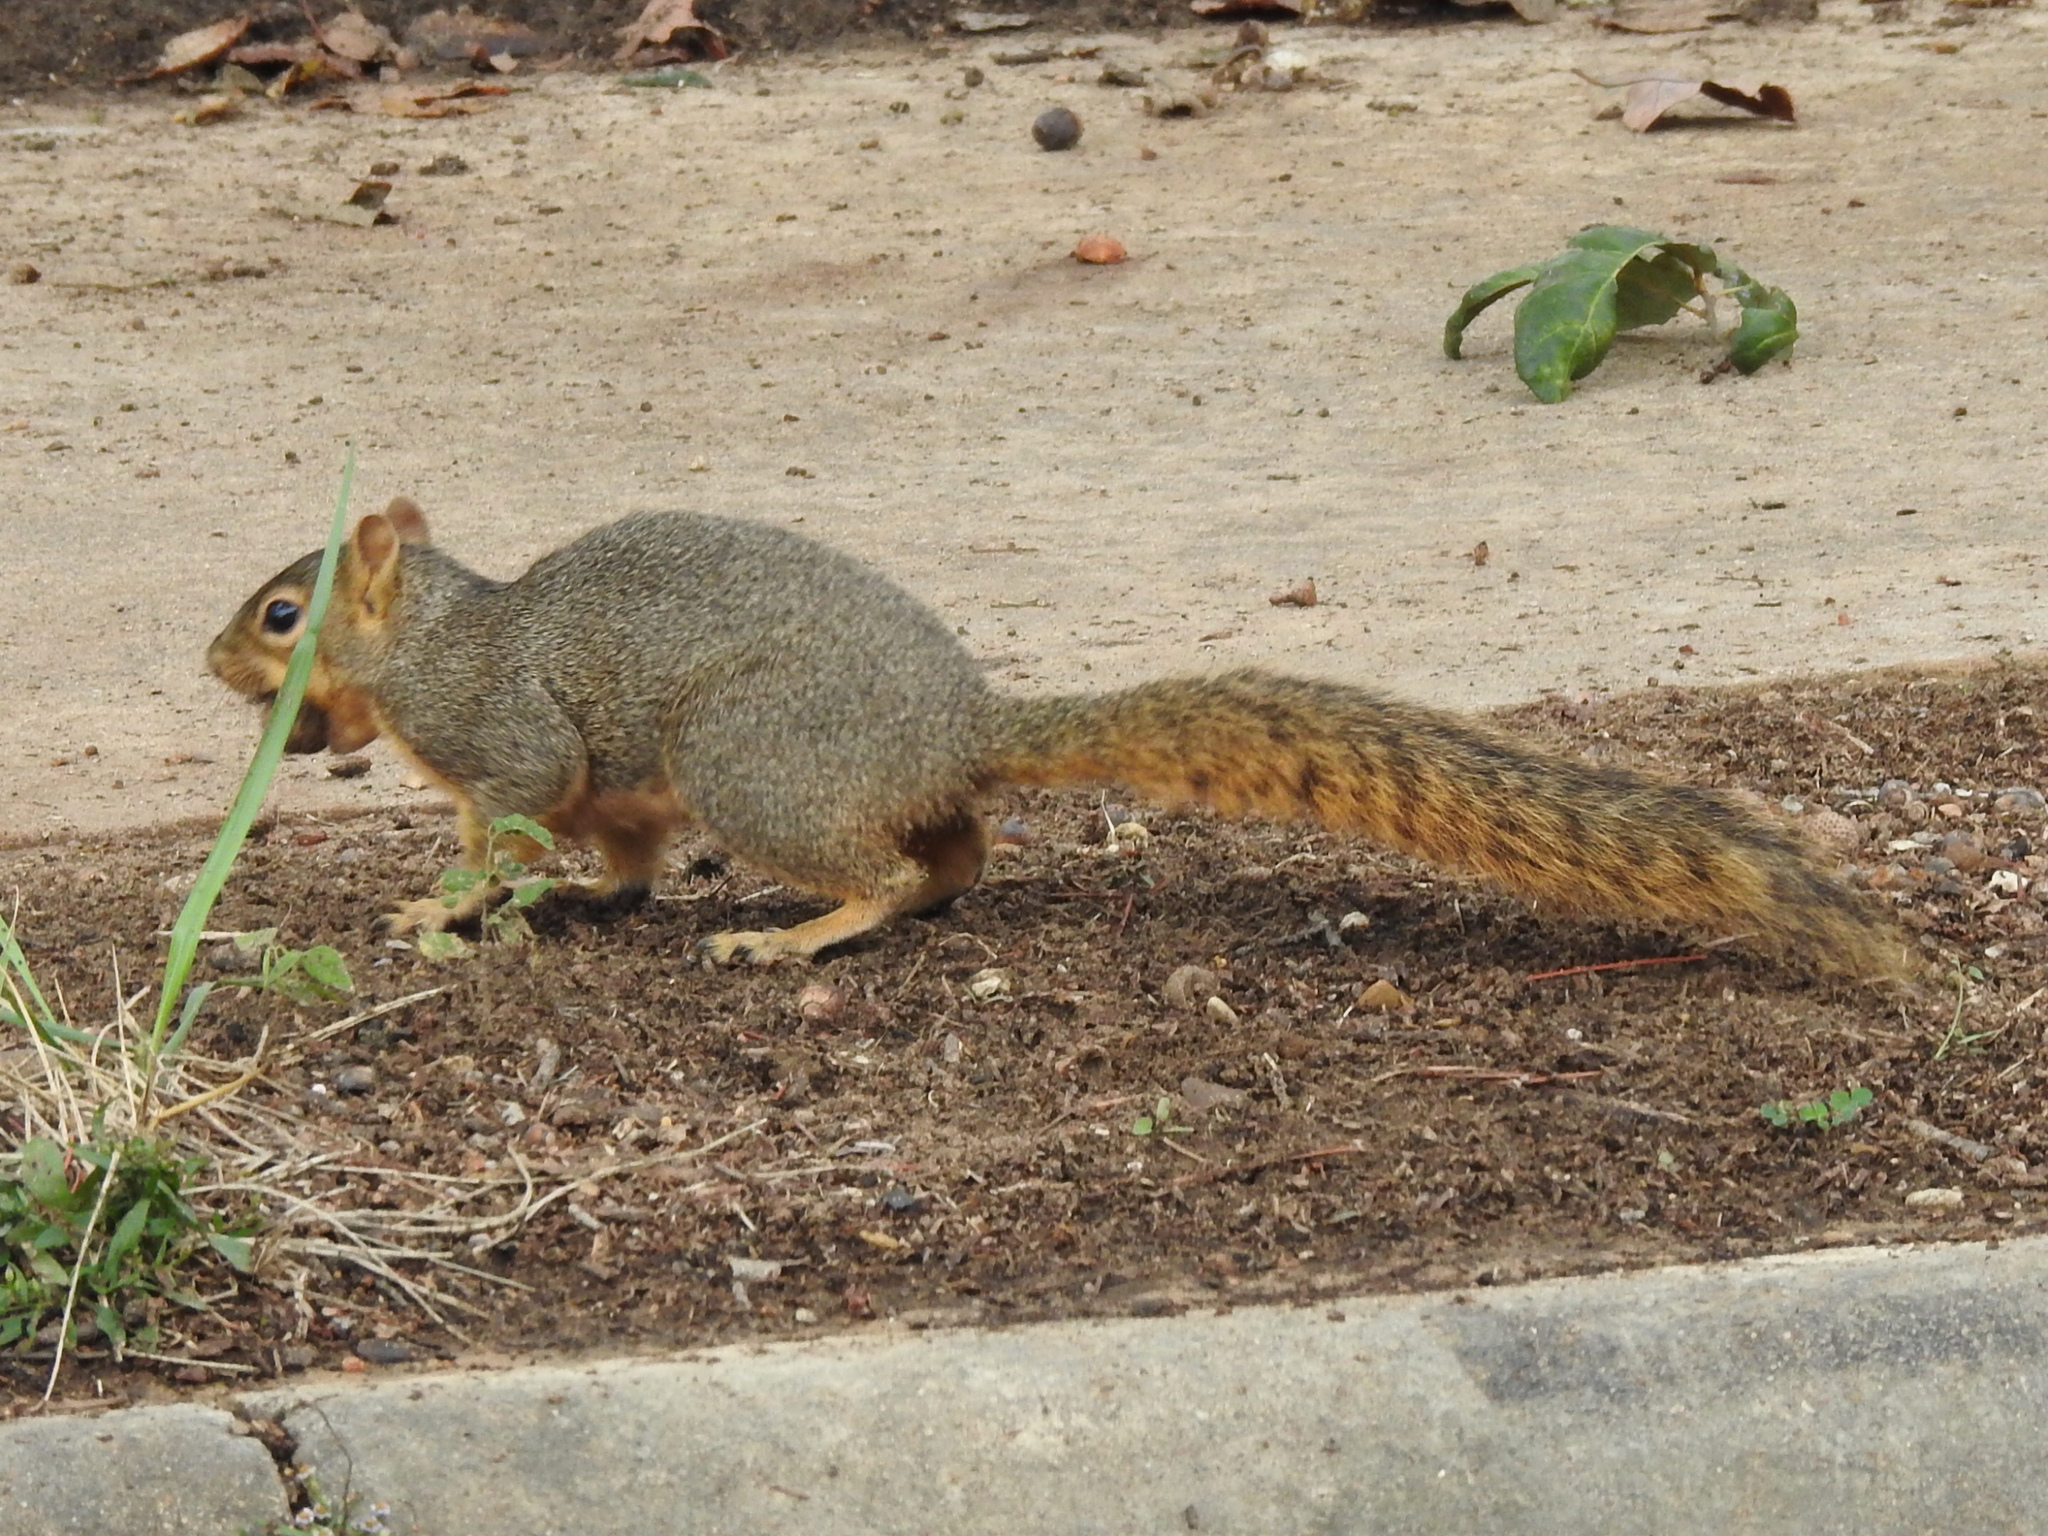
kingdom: Animalia
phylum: Chordata
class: Mammalia
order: Rodentia
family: Sciuridae
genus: Sciurus
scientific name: Sciurus niger
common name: Fox squirrel
